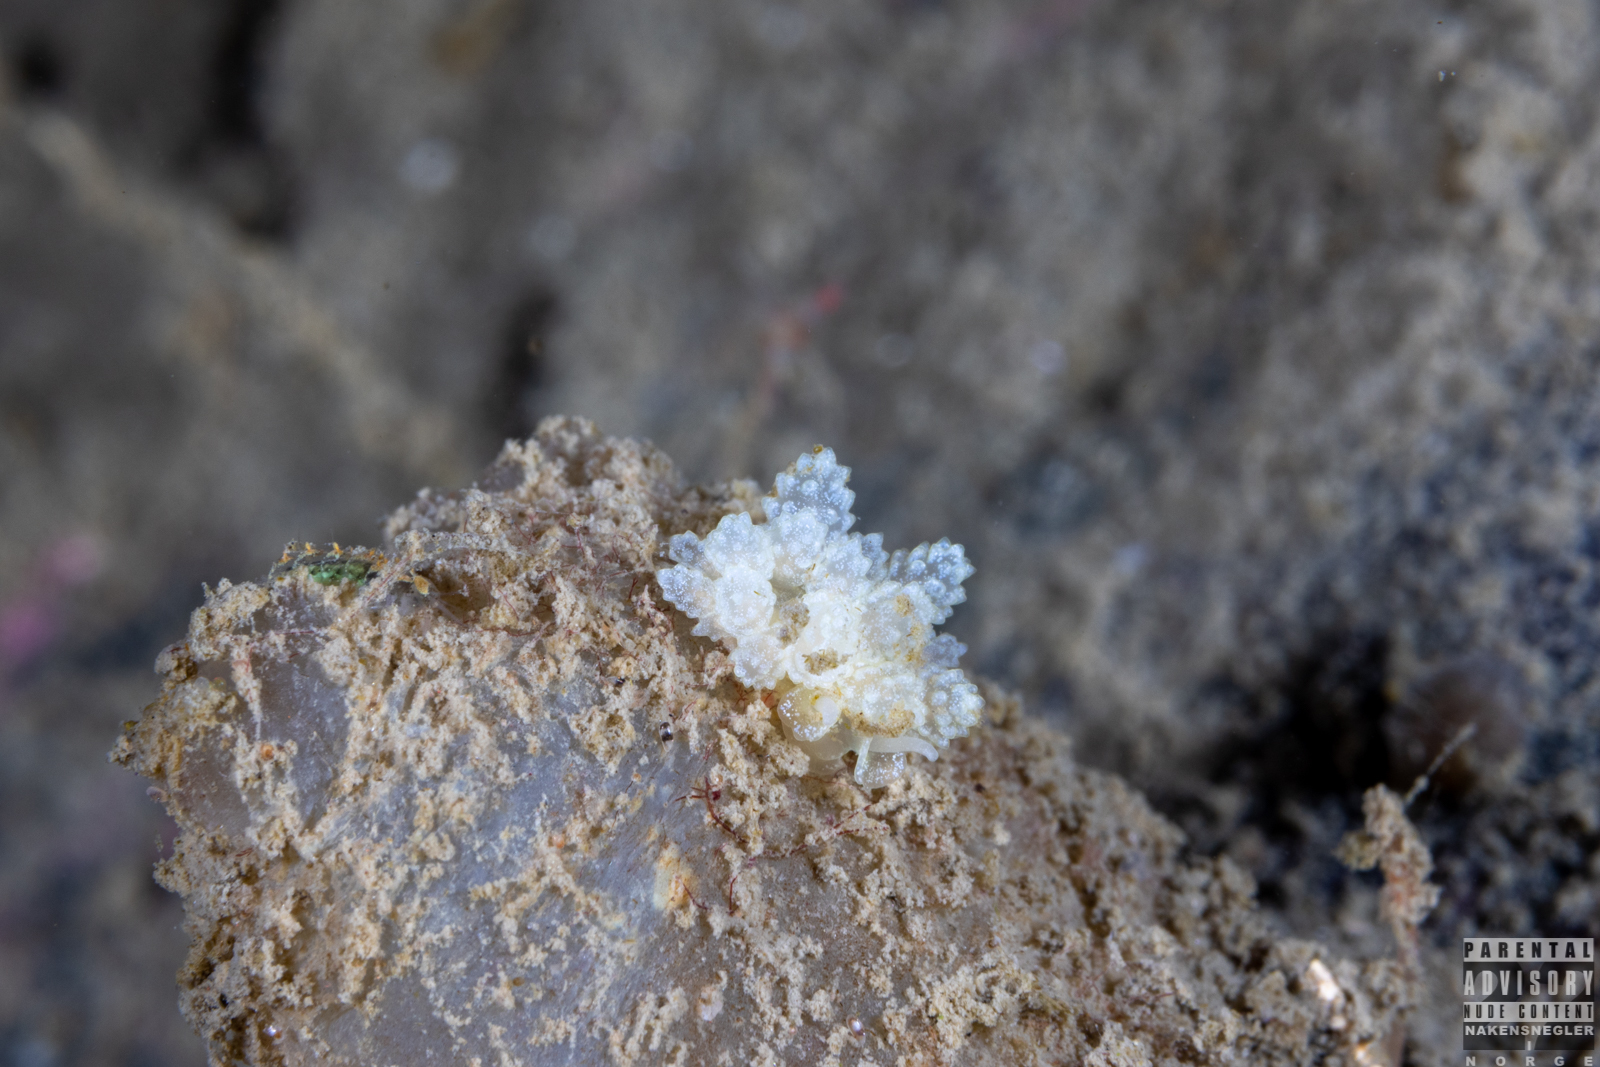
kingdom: Animalia
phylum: Mollusca
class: Gastropoda
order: Nudibranchia
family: Dotidae
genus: Doto
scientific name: Doto fragilis
